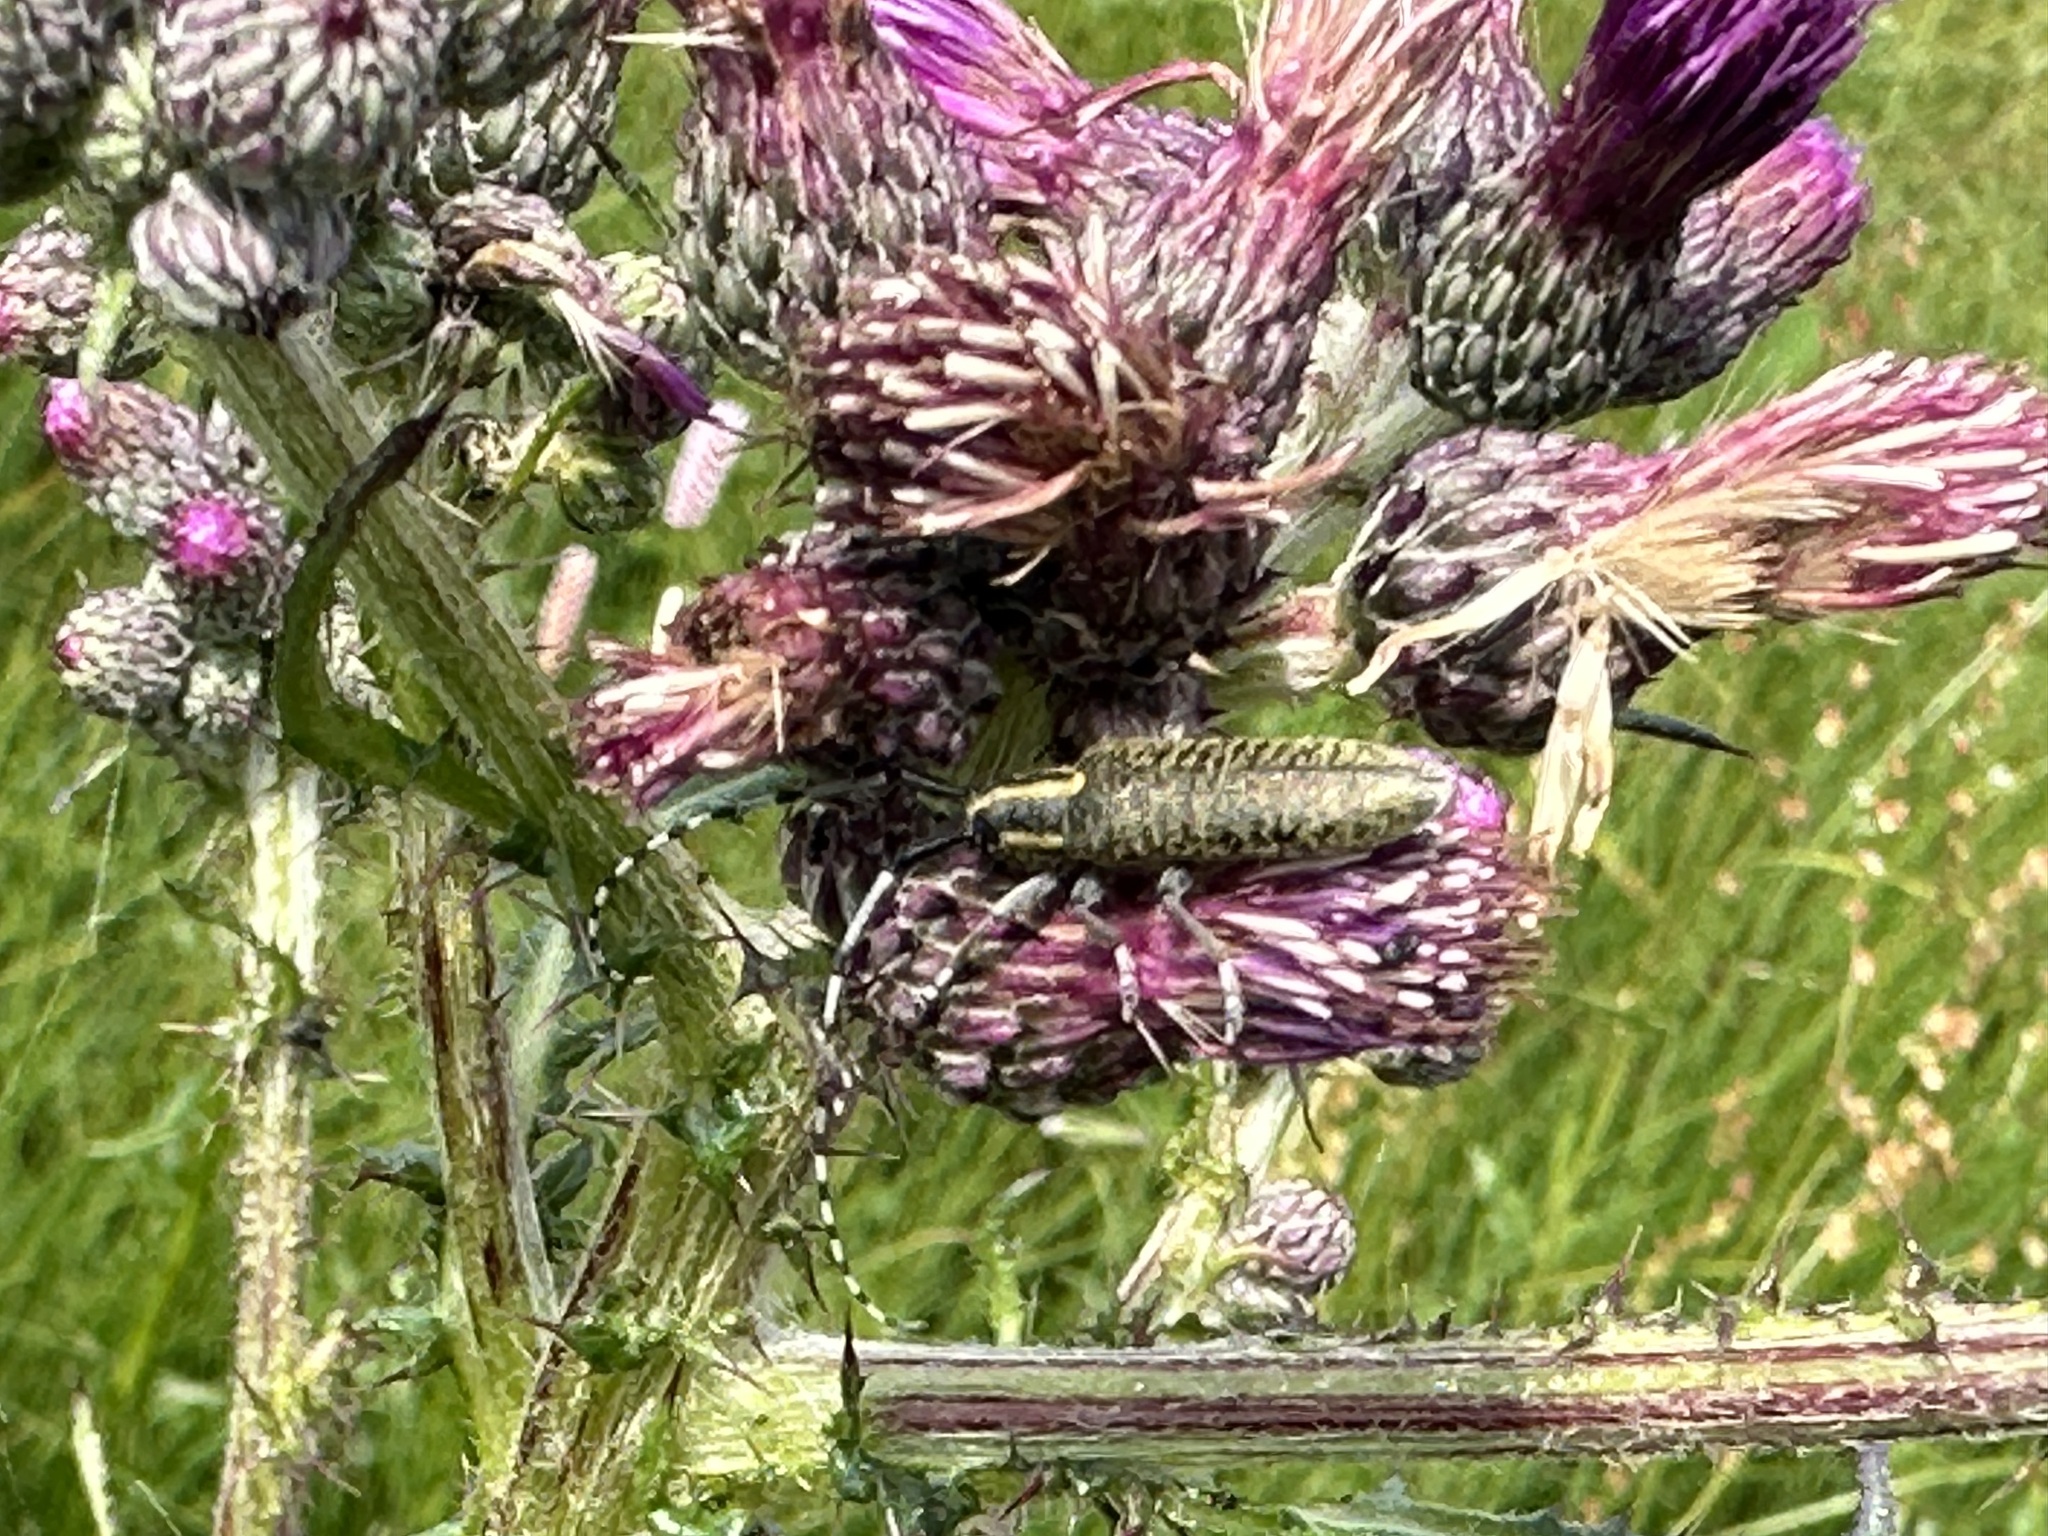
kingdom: Animalia
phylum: Arthropoda
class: Insecta
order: Coleoptera
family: Cerambycidae
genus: Agapanthia
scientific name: Agapanthia villosoviridescens
